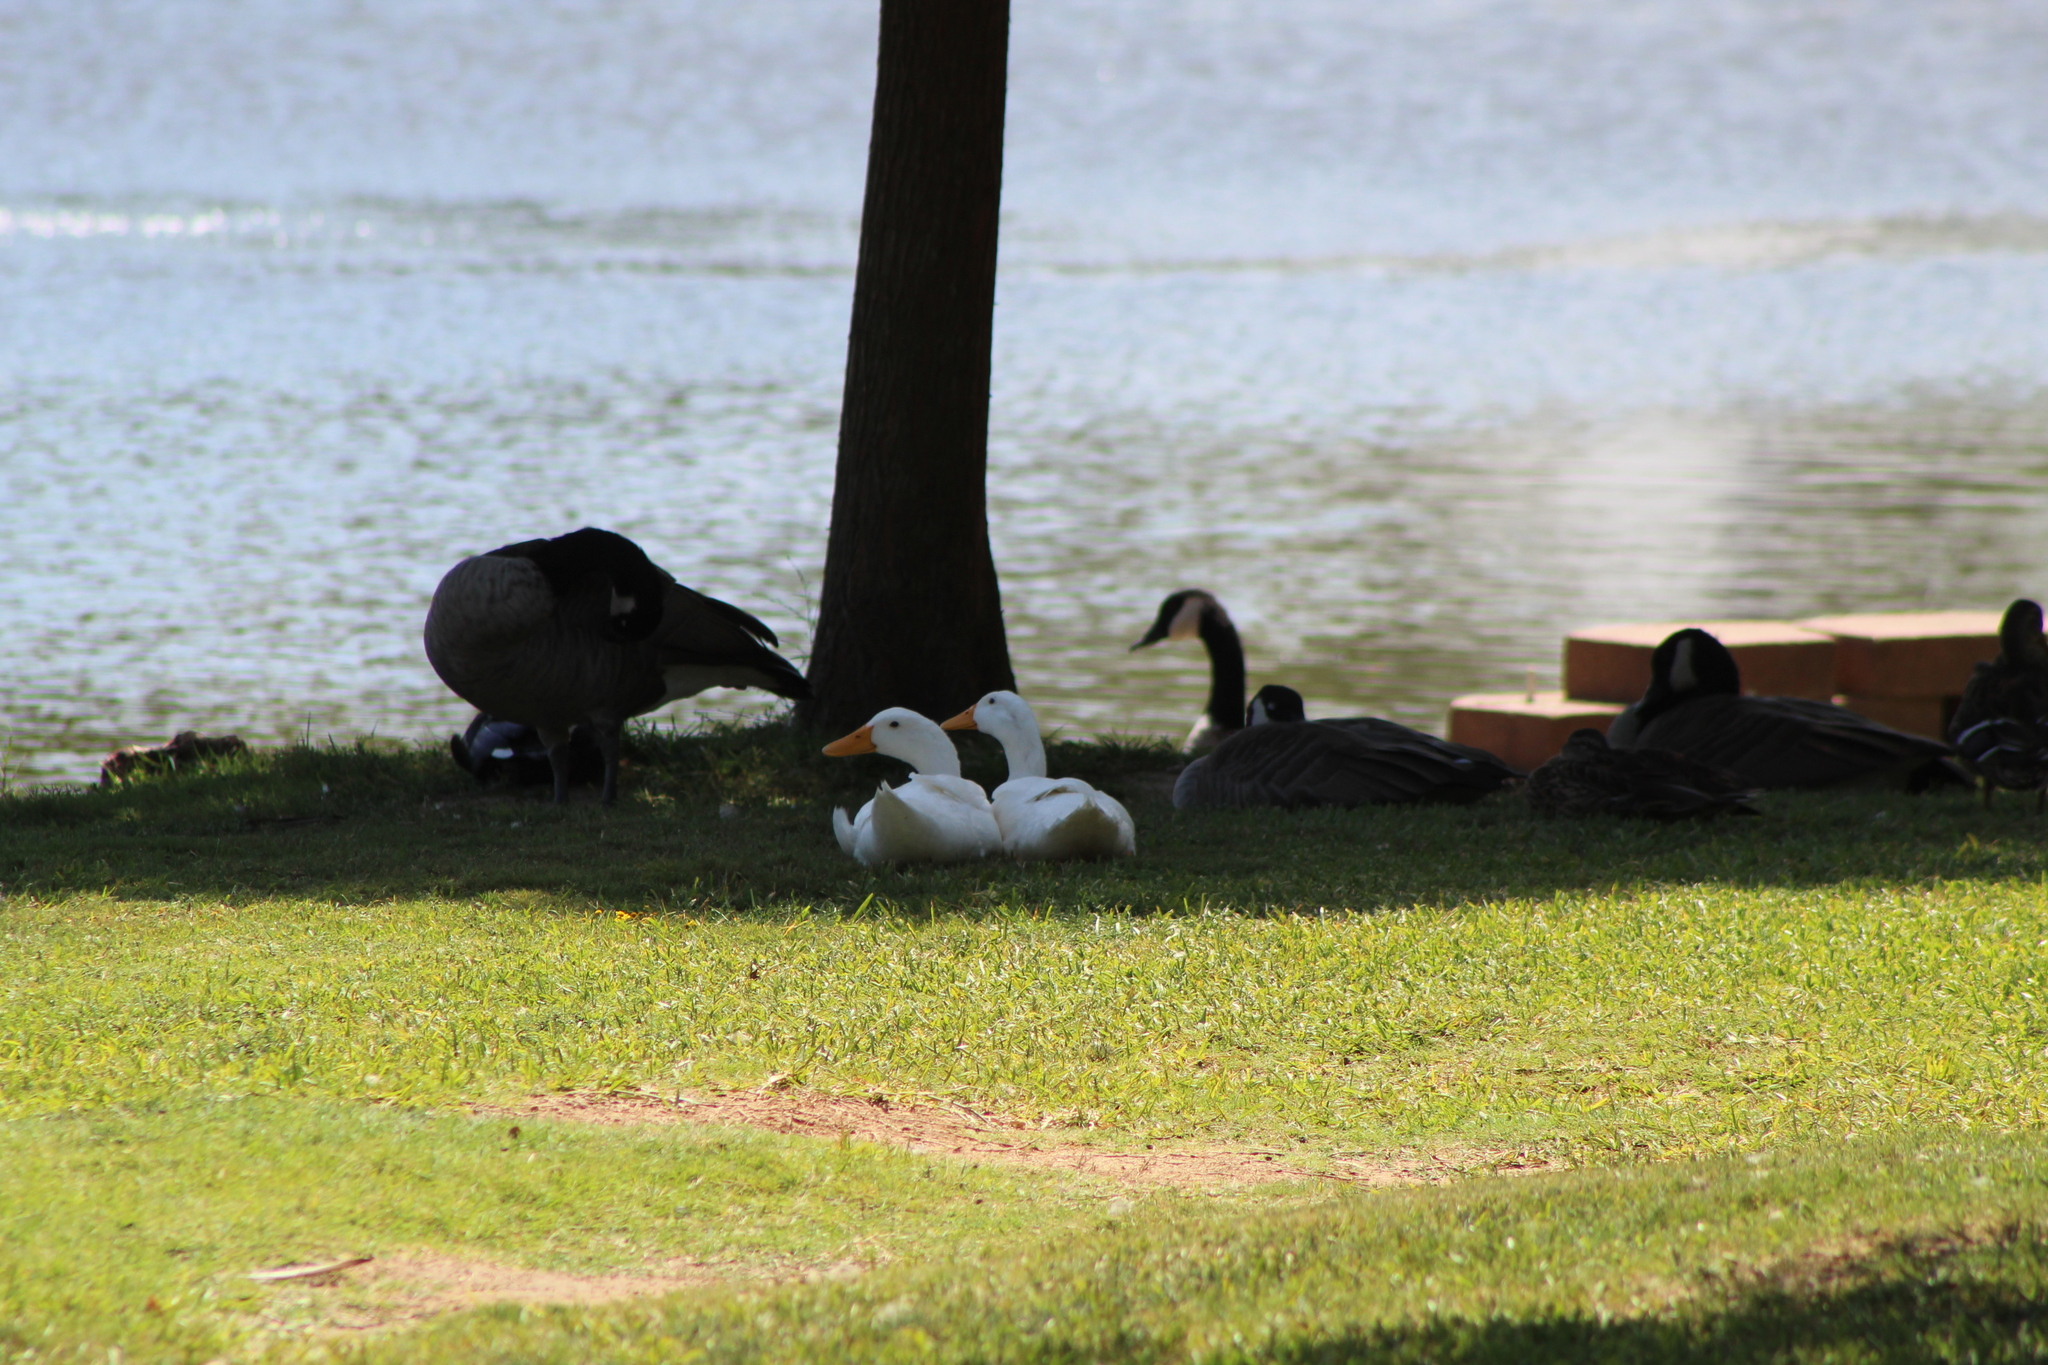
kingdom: Animalia
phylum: Chordata
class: Aves
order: Anseriformes
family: Anatidae
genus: Anas
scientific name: Anas platyrhynchos
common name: Mallard
